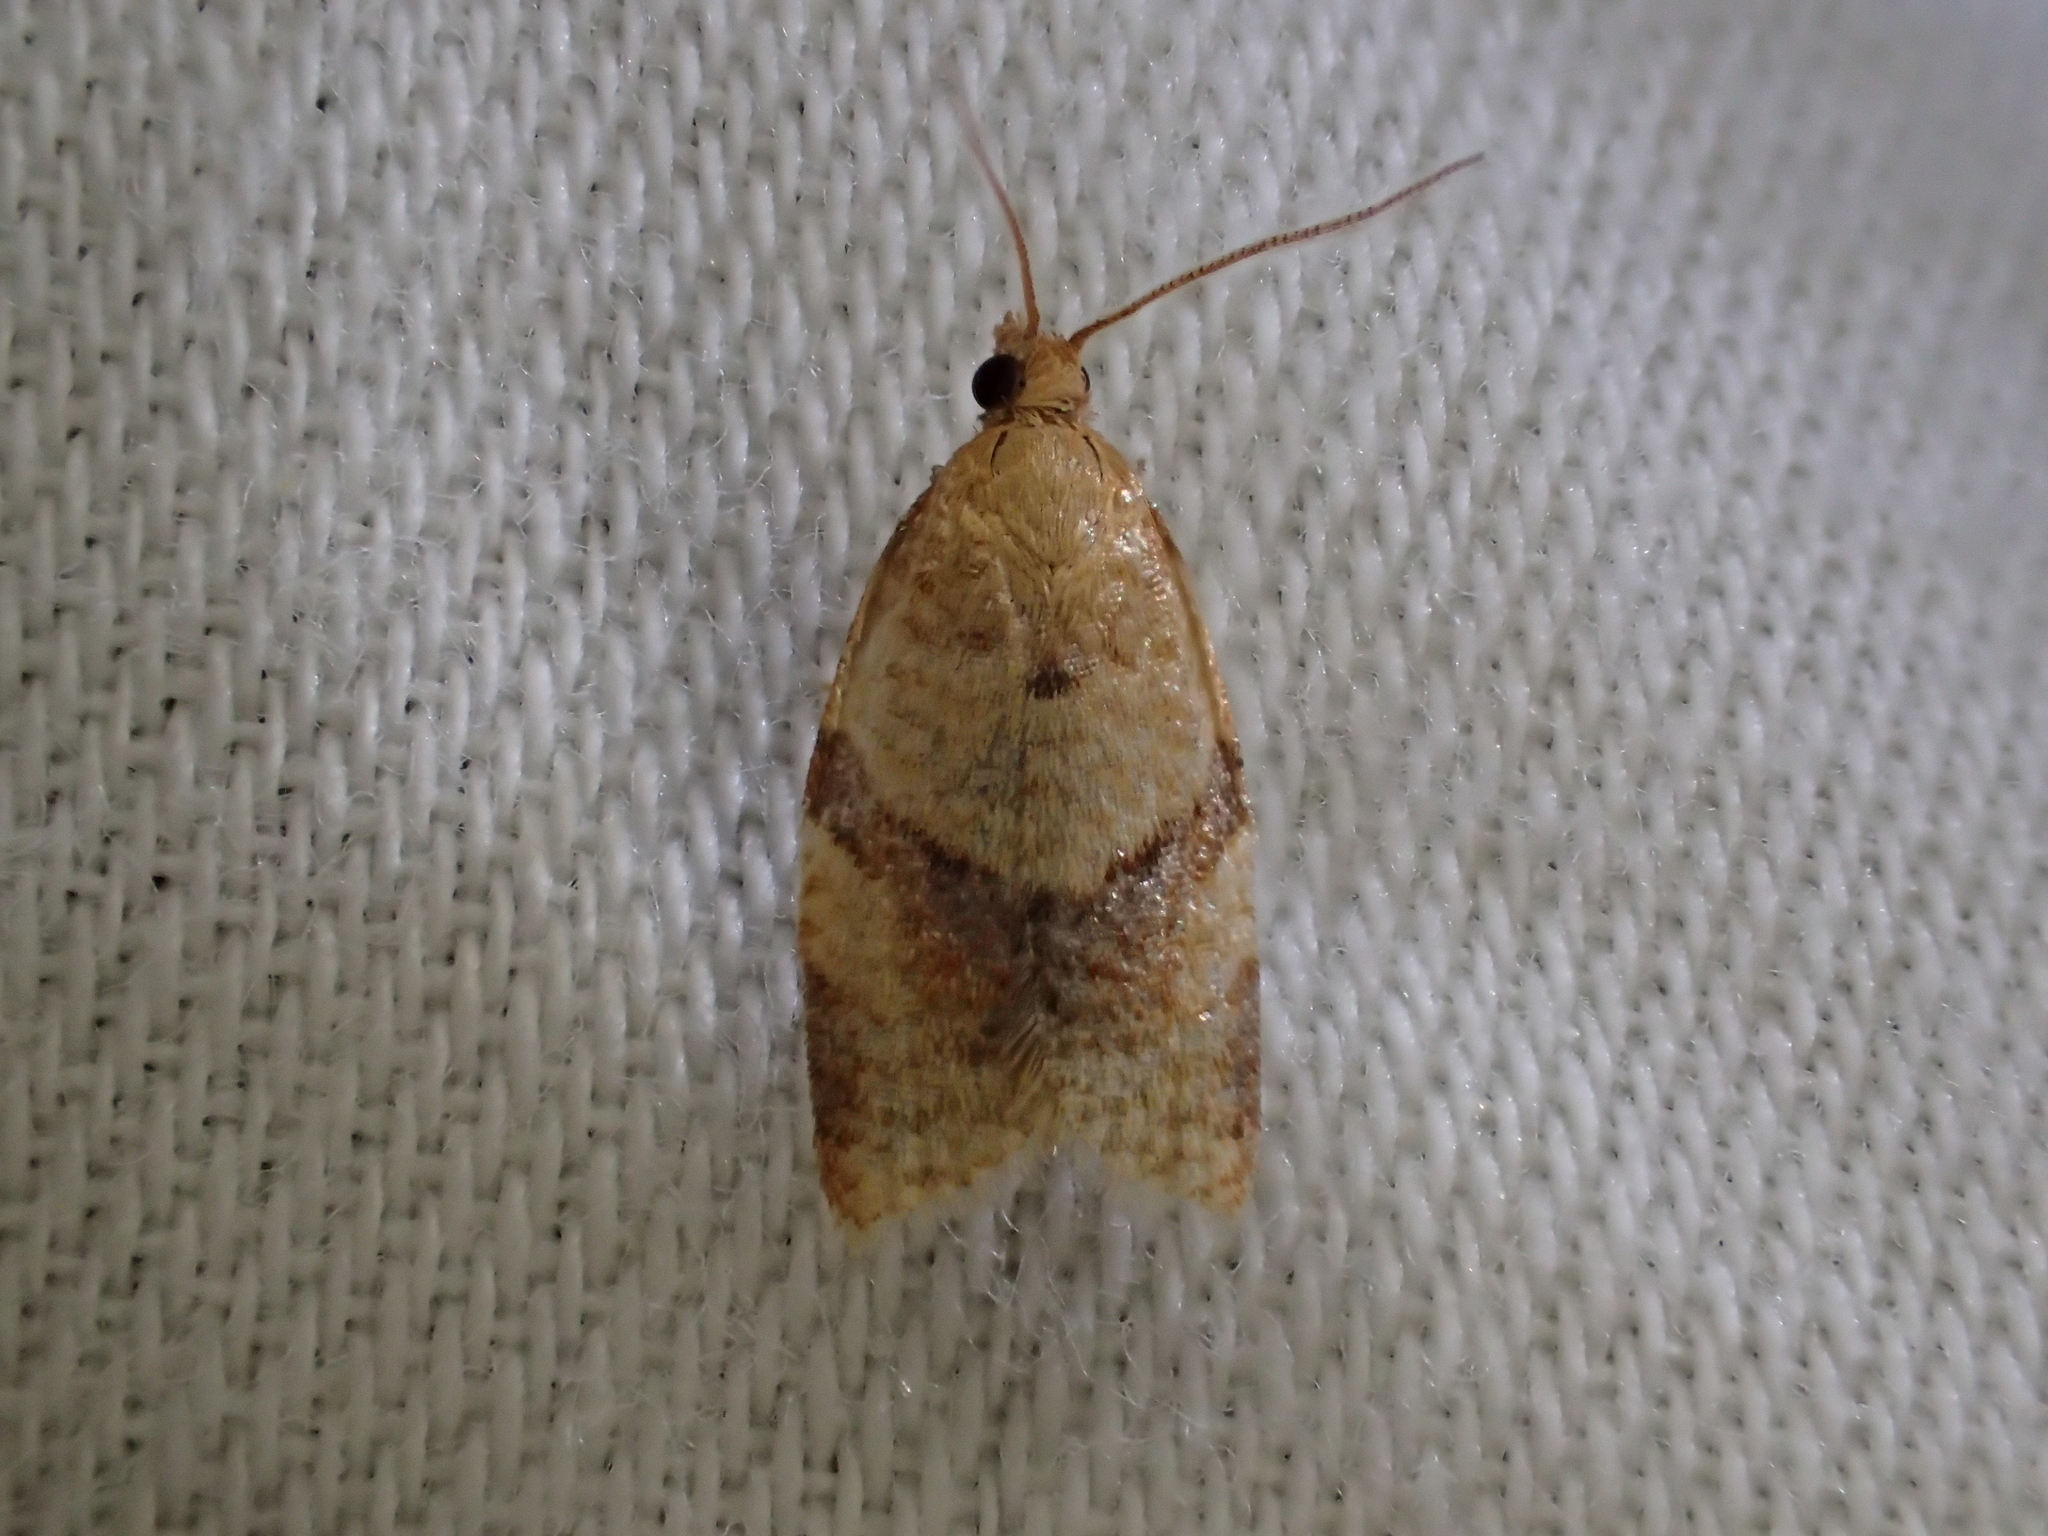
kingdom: Animalia
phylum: Arthropoda
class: Insecta
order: Lepidoptera
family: Tortricidae
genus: Clepsis
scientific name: Clepsis consimilana
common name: Privet tortrix
